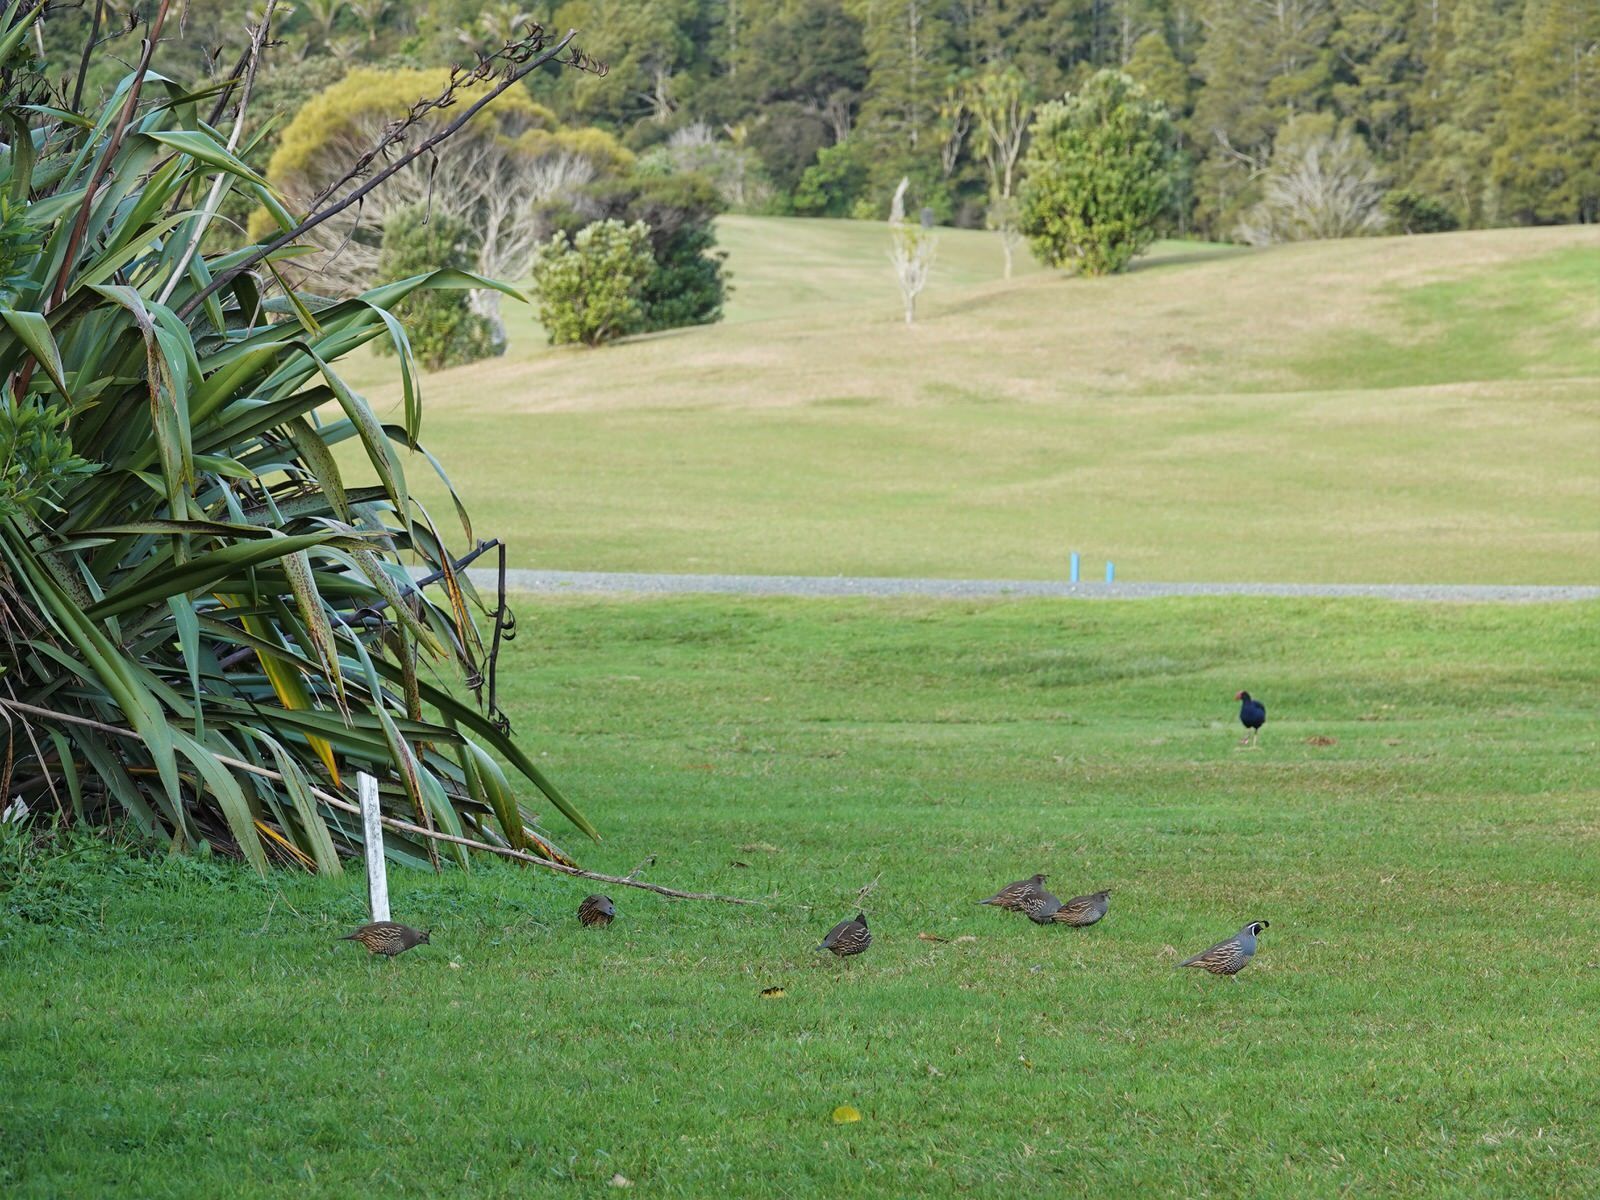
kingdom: Animalia
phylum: Chordata
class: Aves
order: Galliformes
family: Odontophoridae
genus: Callipepla
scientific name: Callipepla californica
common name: California quail
